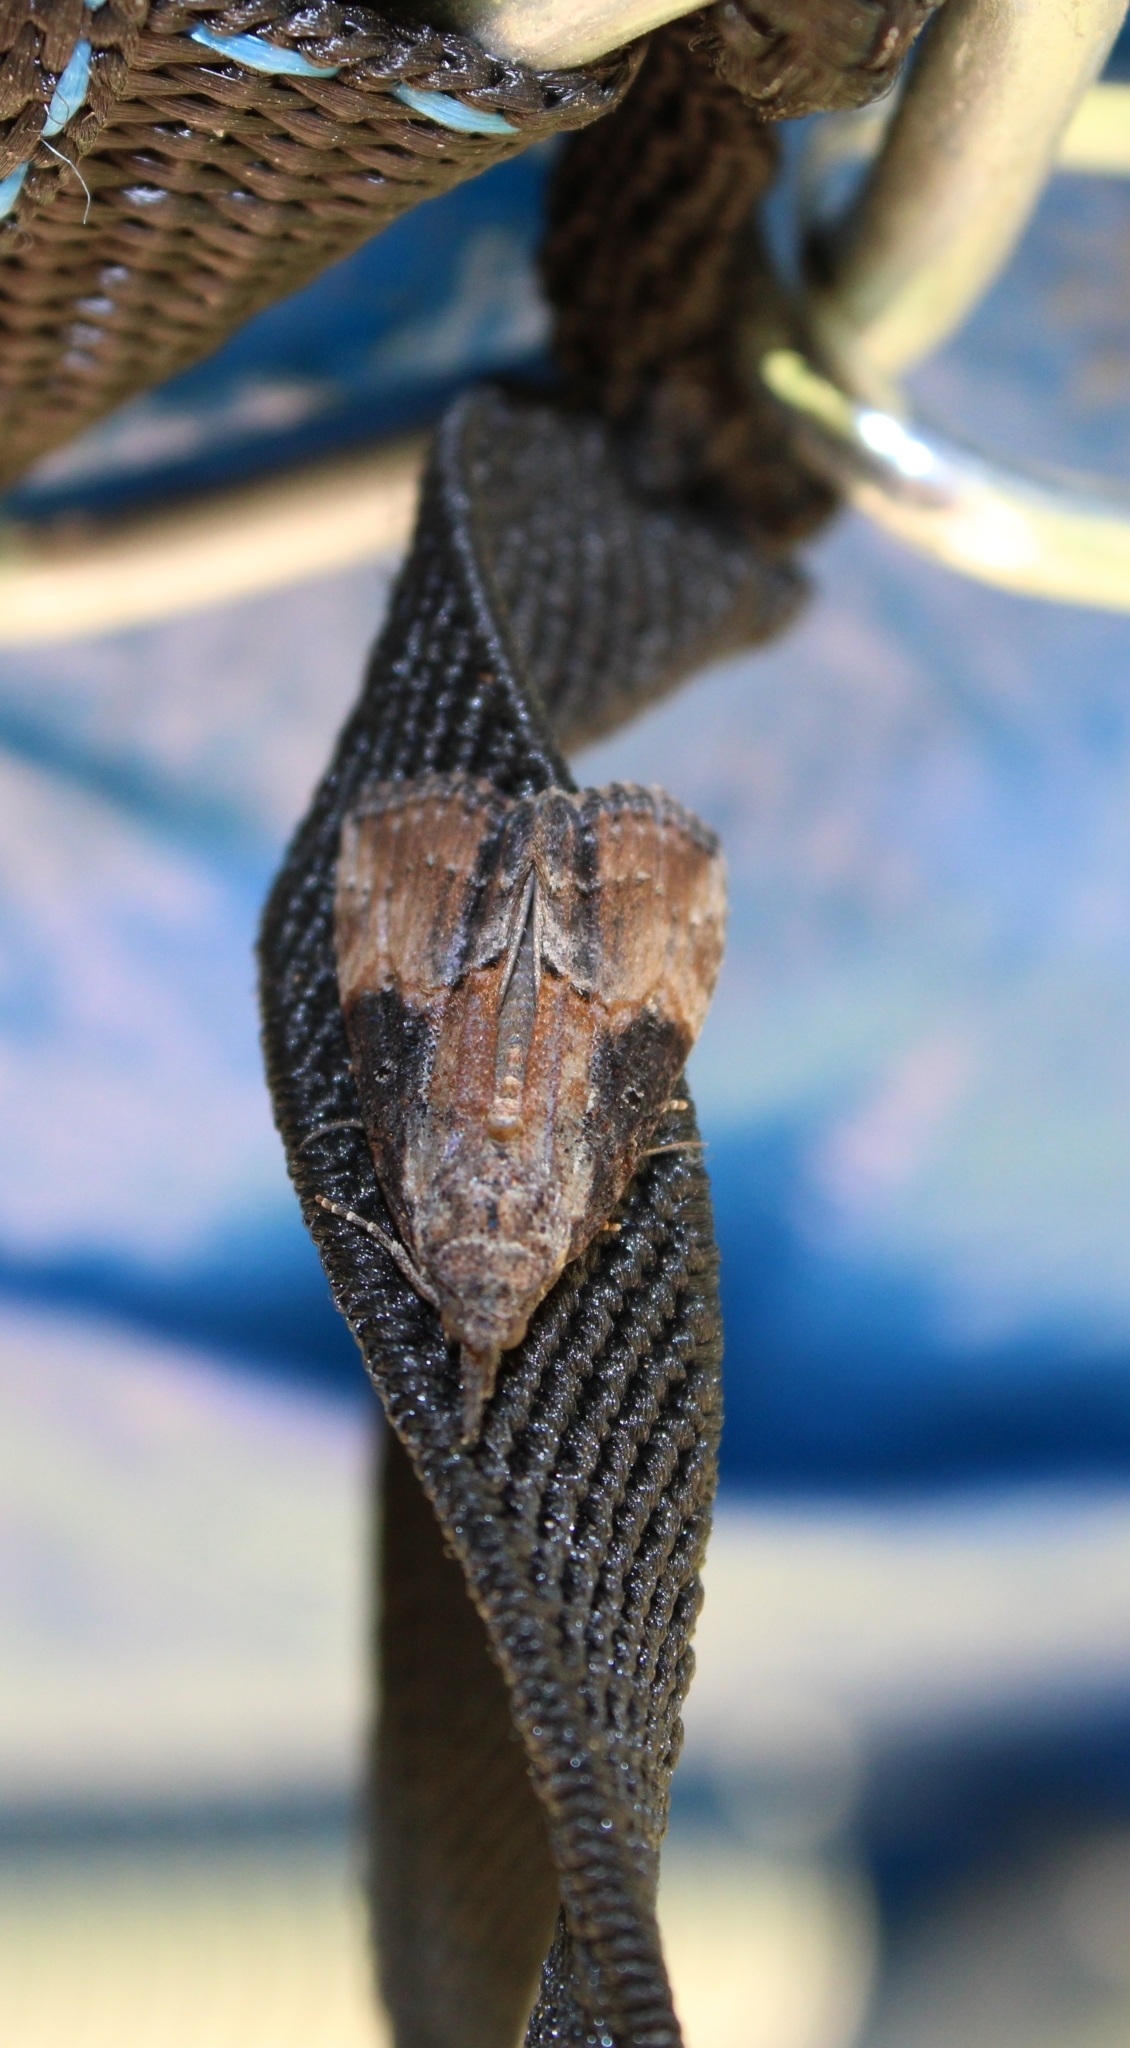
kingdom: Animalia
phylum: Arthropoda
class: Insecta
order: Lepidoptera
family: Erebidae
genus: Hypena
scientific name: Hypena scabra
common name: Green cloverworm
